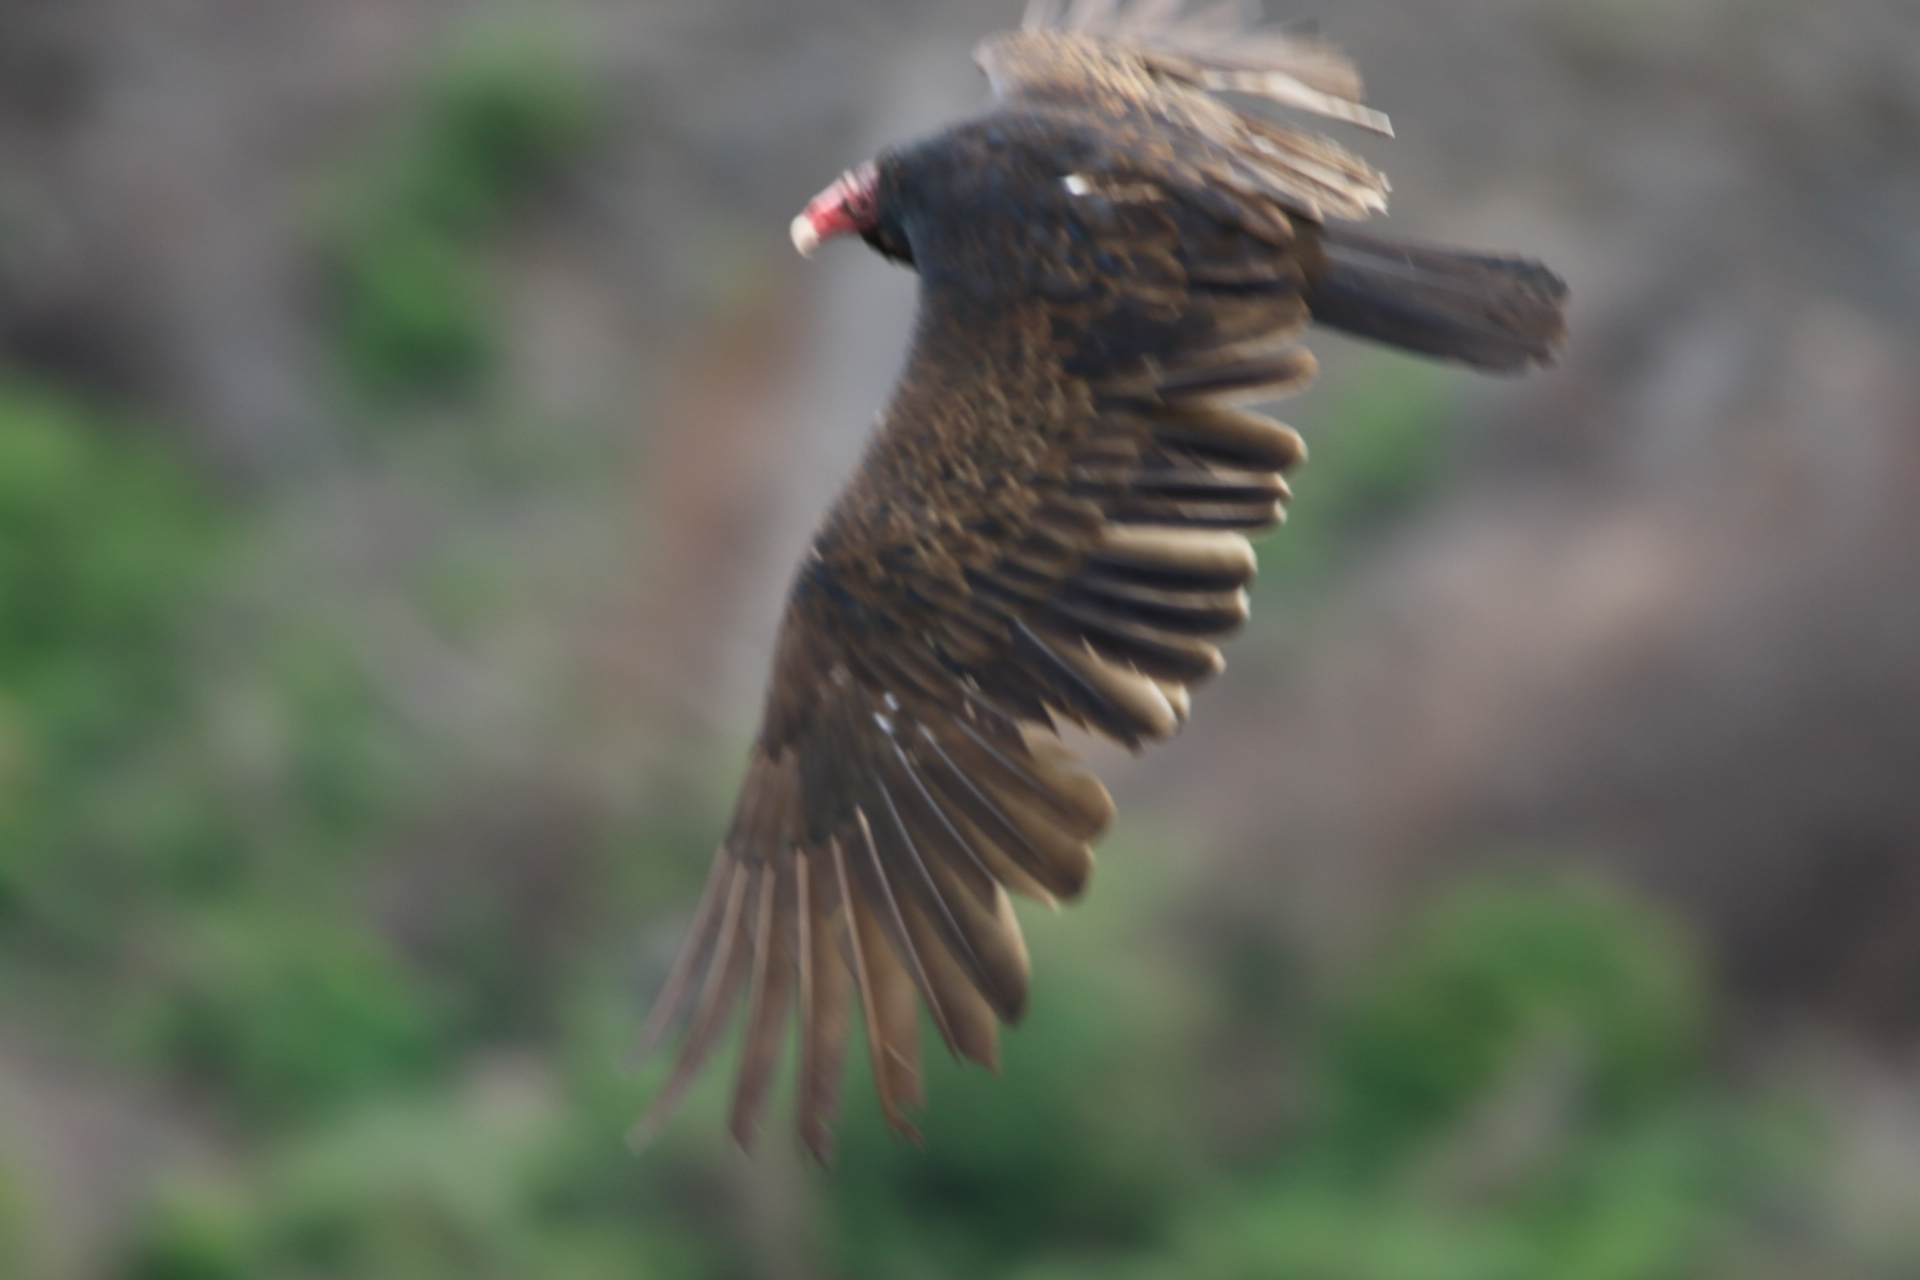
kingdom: Animalia
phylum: Chordata
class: Aves
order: Accipitriformes
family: Cathartidae
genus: Cathartes
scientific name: Cathartes aura
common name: Turkey vulture
